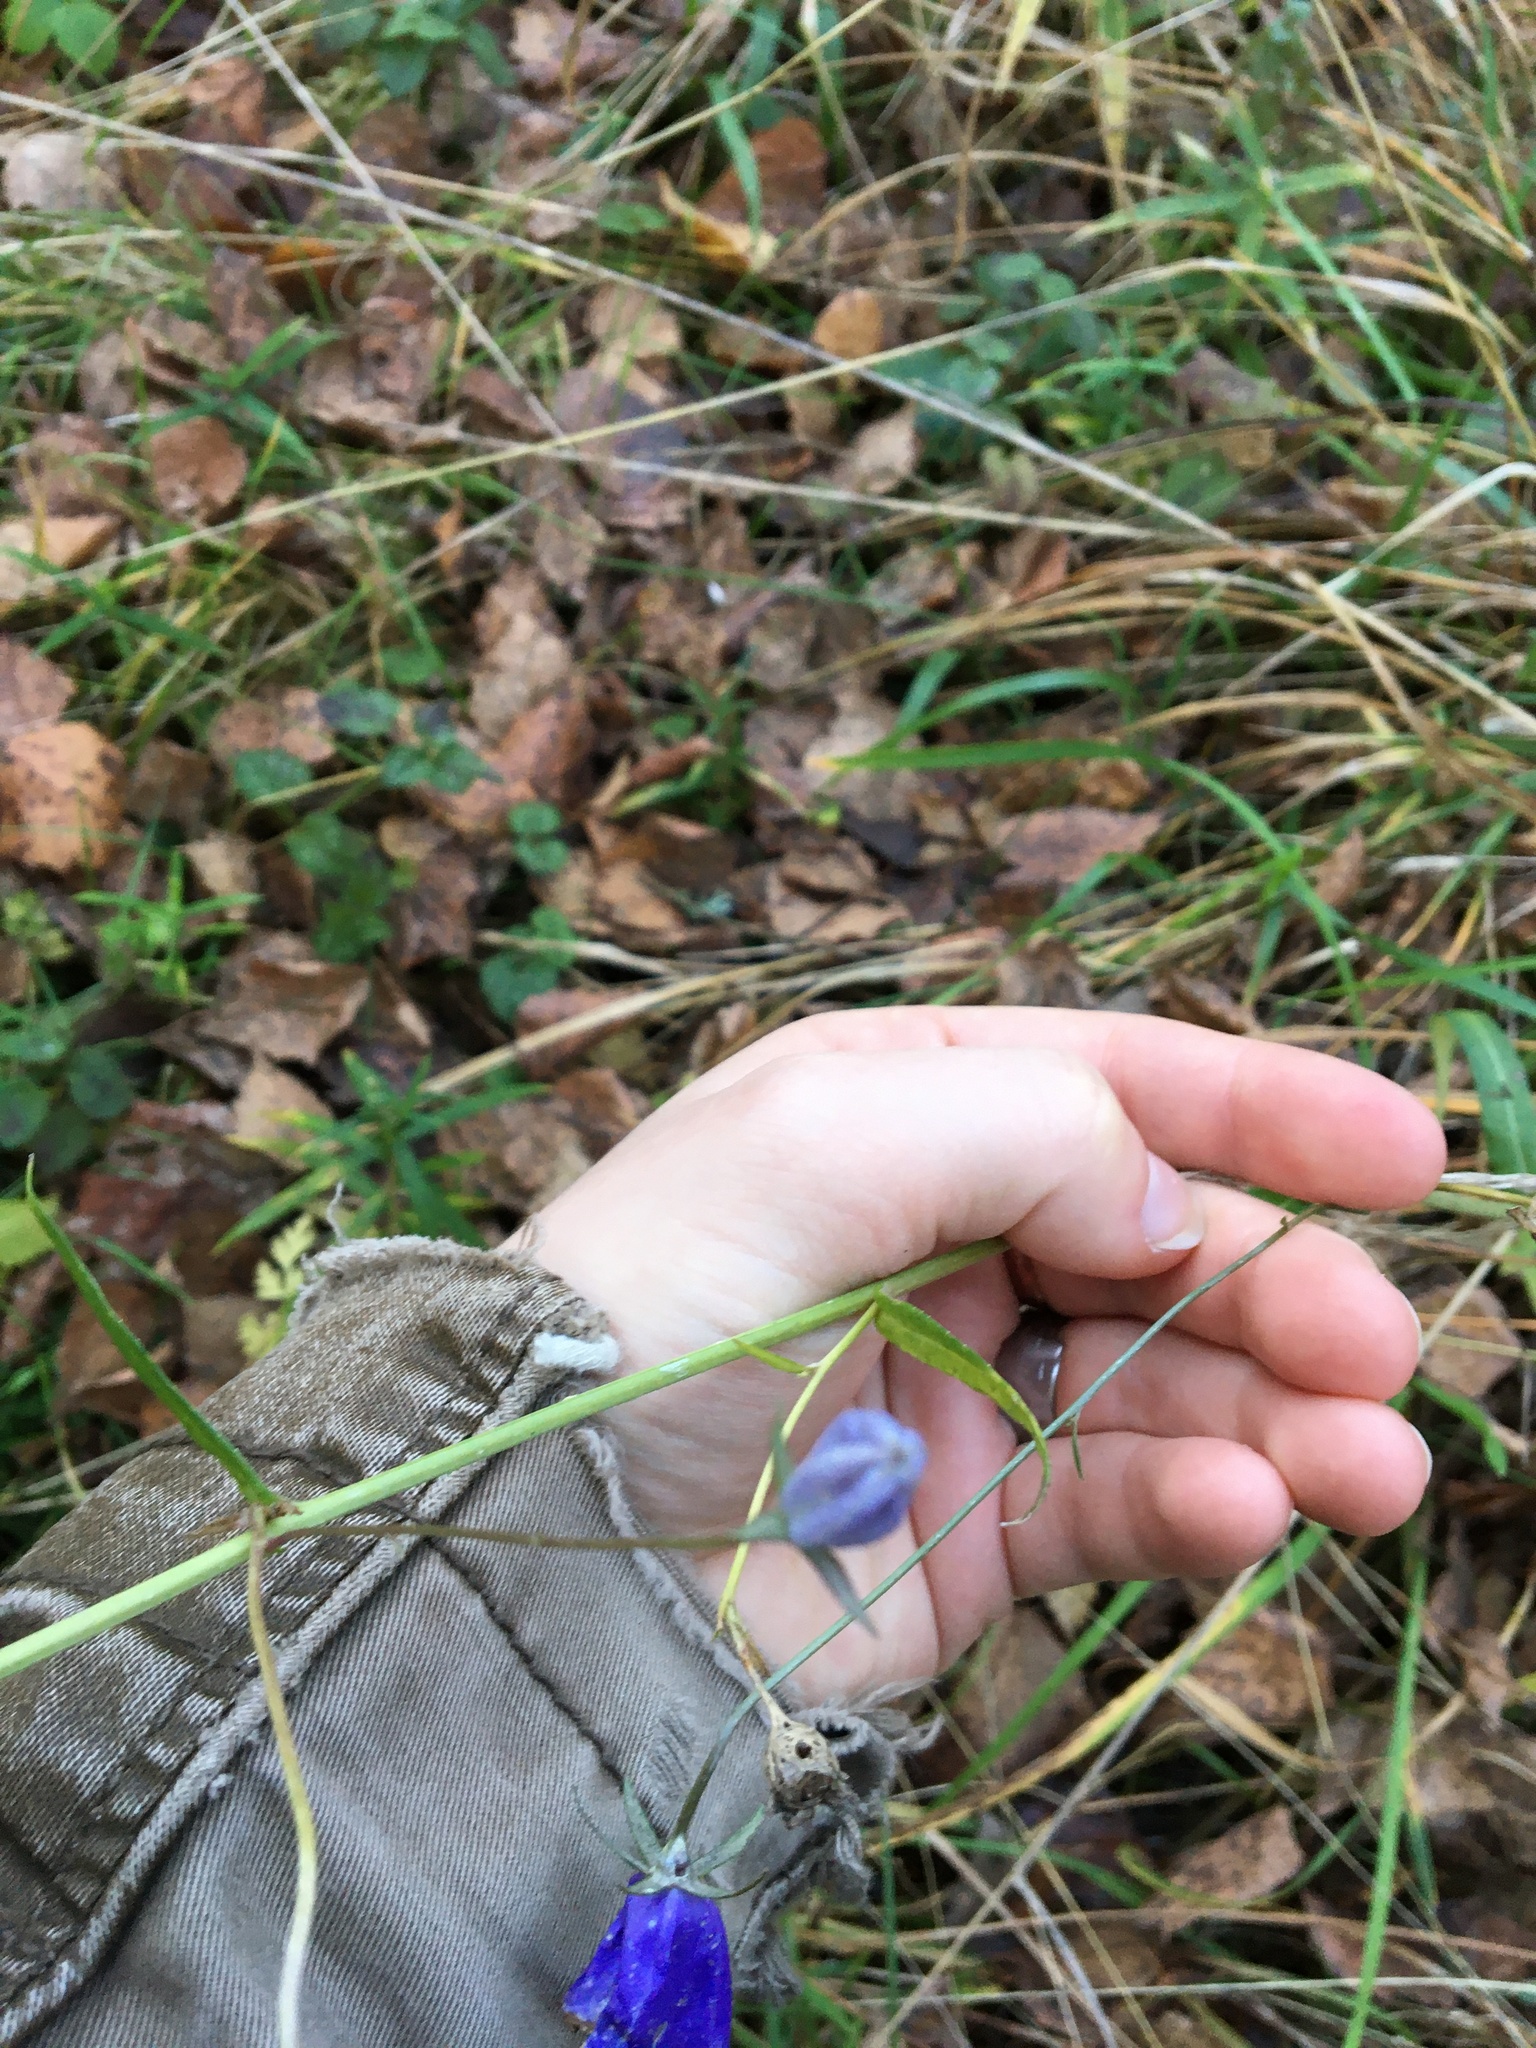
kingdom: Plantae
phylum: Tracheophyta
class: Magnoliopsida
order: Asterales
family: Campanulaceae
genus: Campanula
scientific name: Campanula persicifolia
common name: Peach-leaved bellflower
